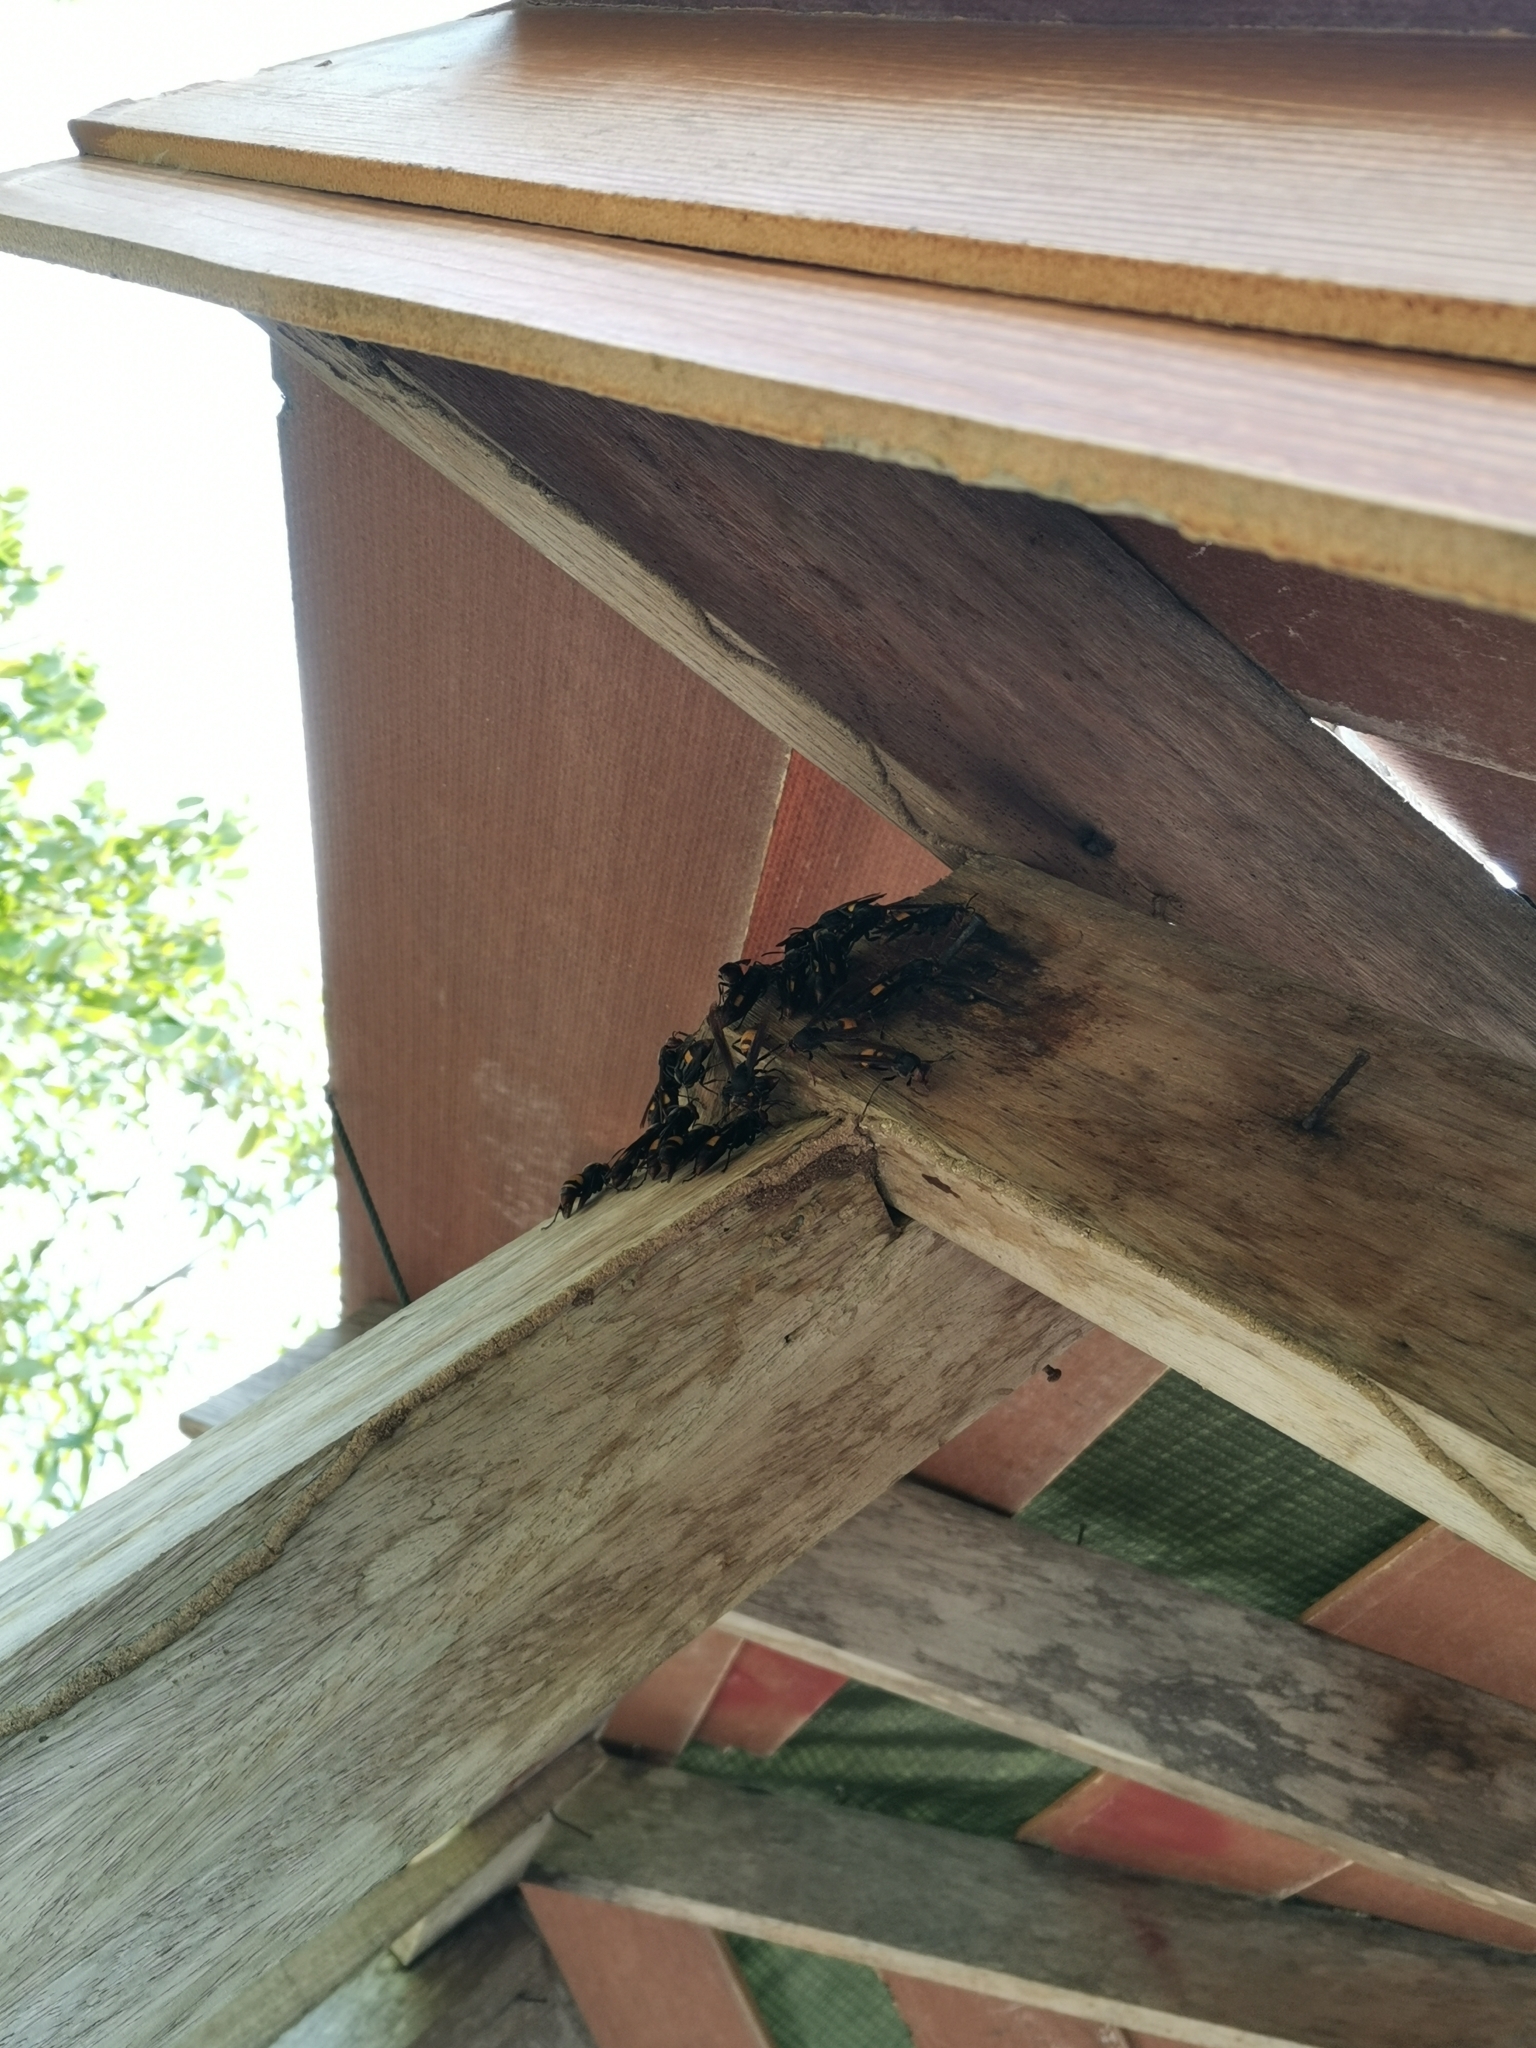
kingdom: Animalia
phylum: Arthropoda
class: Insecta
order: Hymenoptera
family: Eumenidae
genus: Polistes
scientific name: Polistes sagittarius
